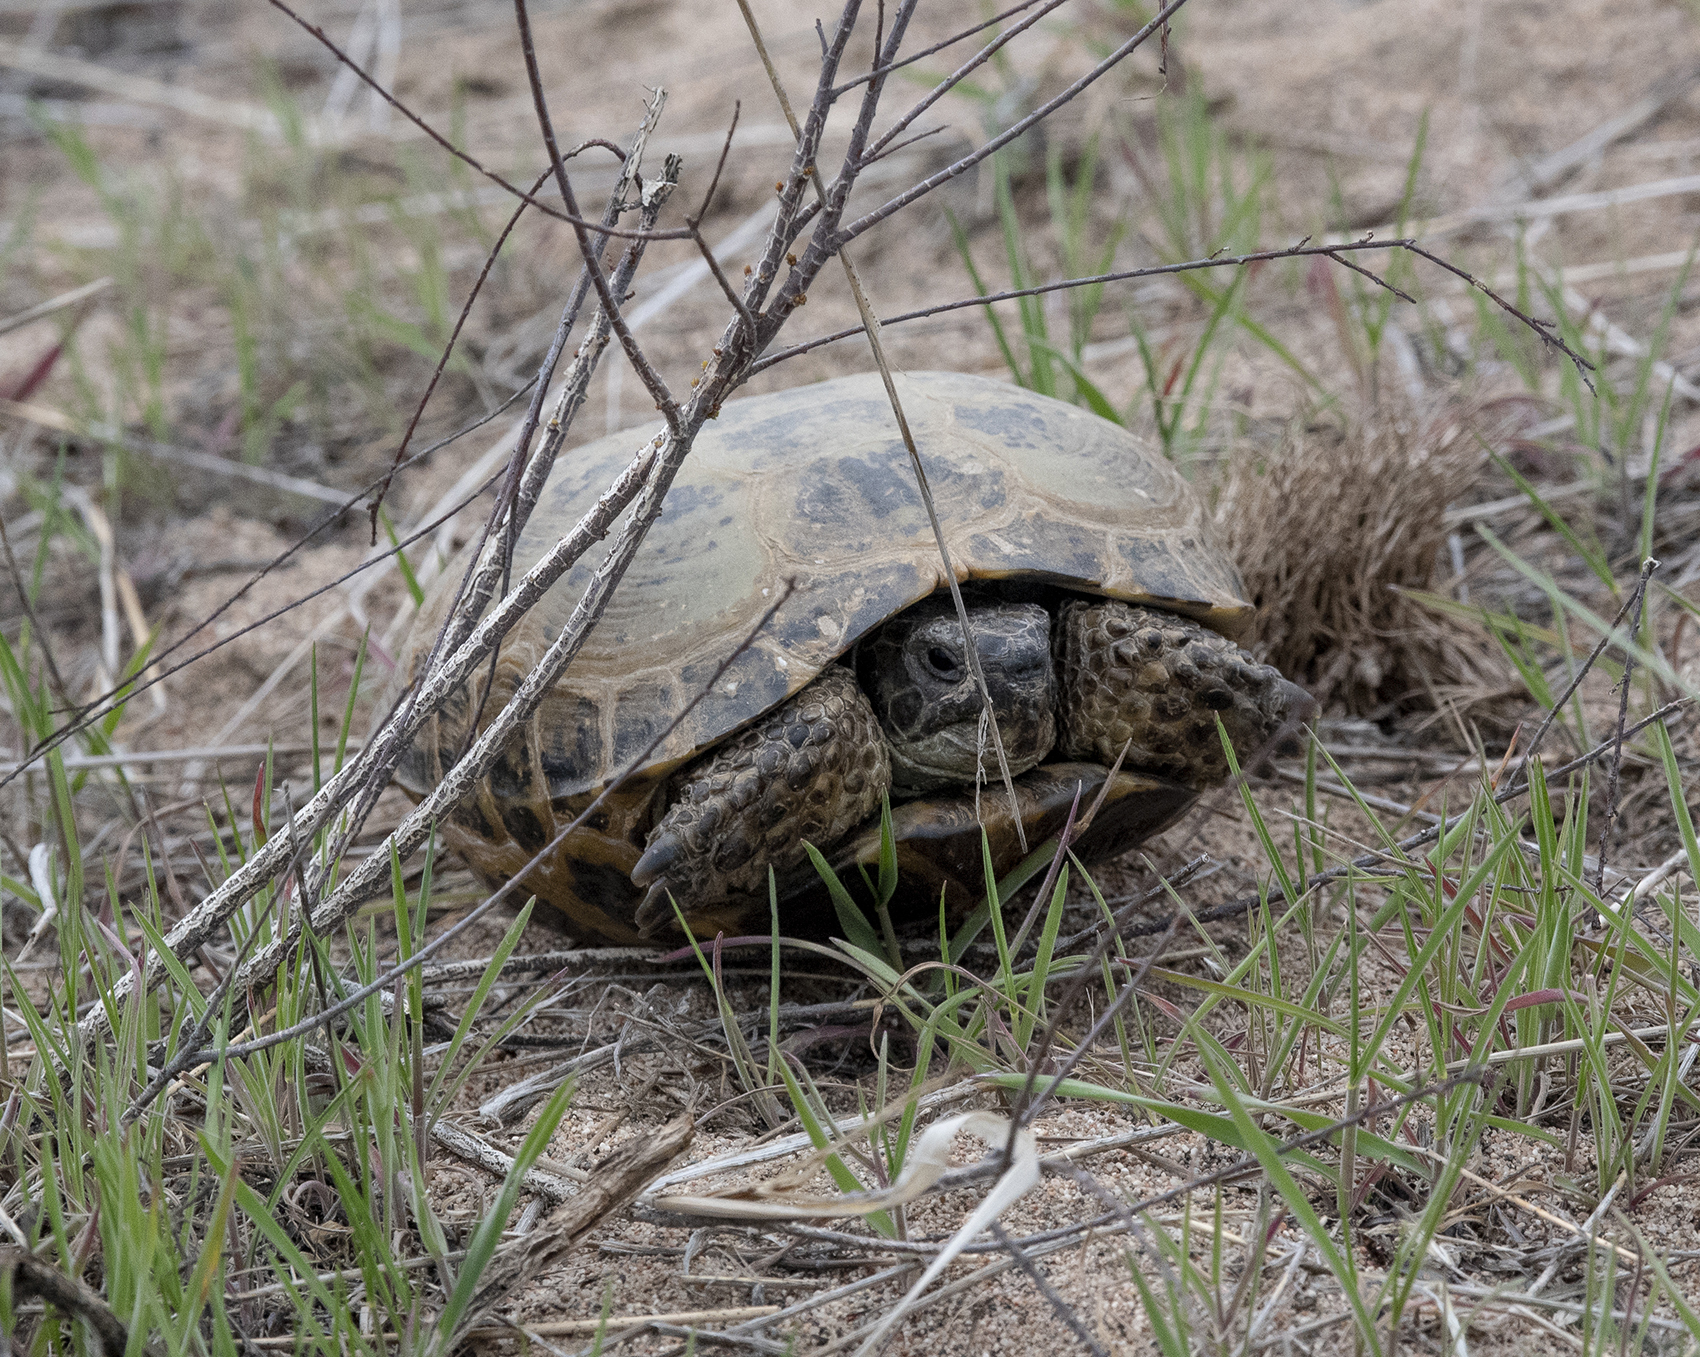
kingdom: Animalia
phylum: Chordata
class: Testudines
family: Testudinidae
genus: Testudo
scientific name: Testudo horsfieldii
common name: Central asia tortoise
